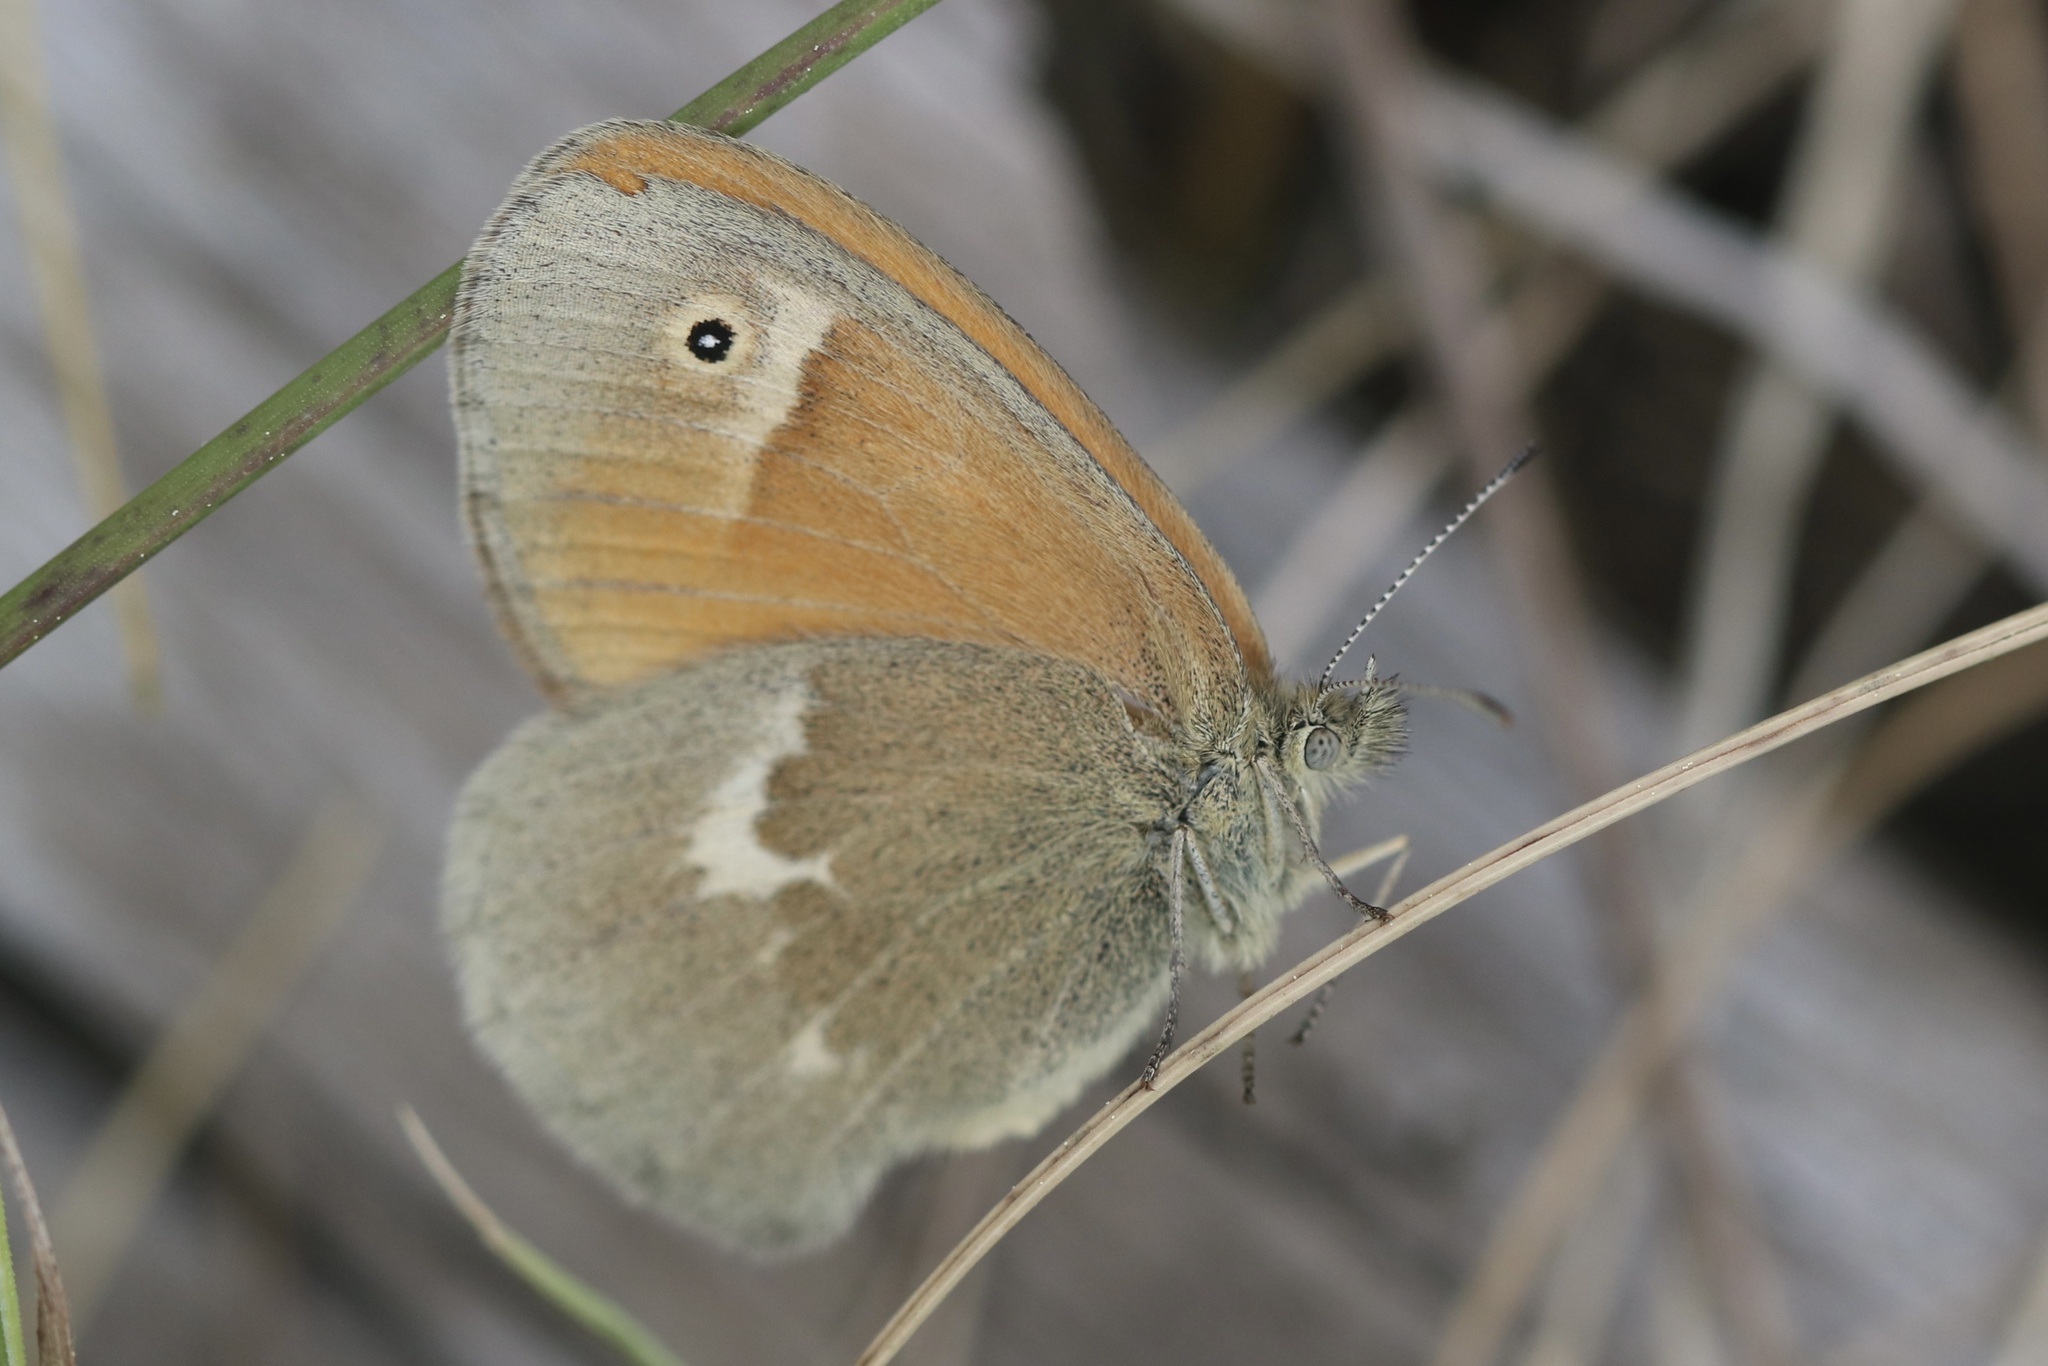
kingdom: Animalia
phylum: Arthropoda
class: Insecta
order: Lepidoptera
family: Nymphalidae
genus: Coenonympha
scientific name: Coenonympha california
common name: Common ringlet
